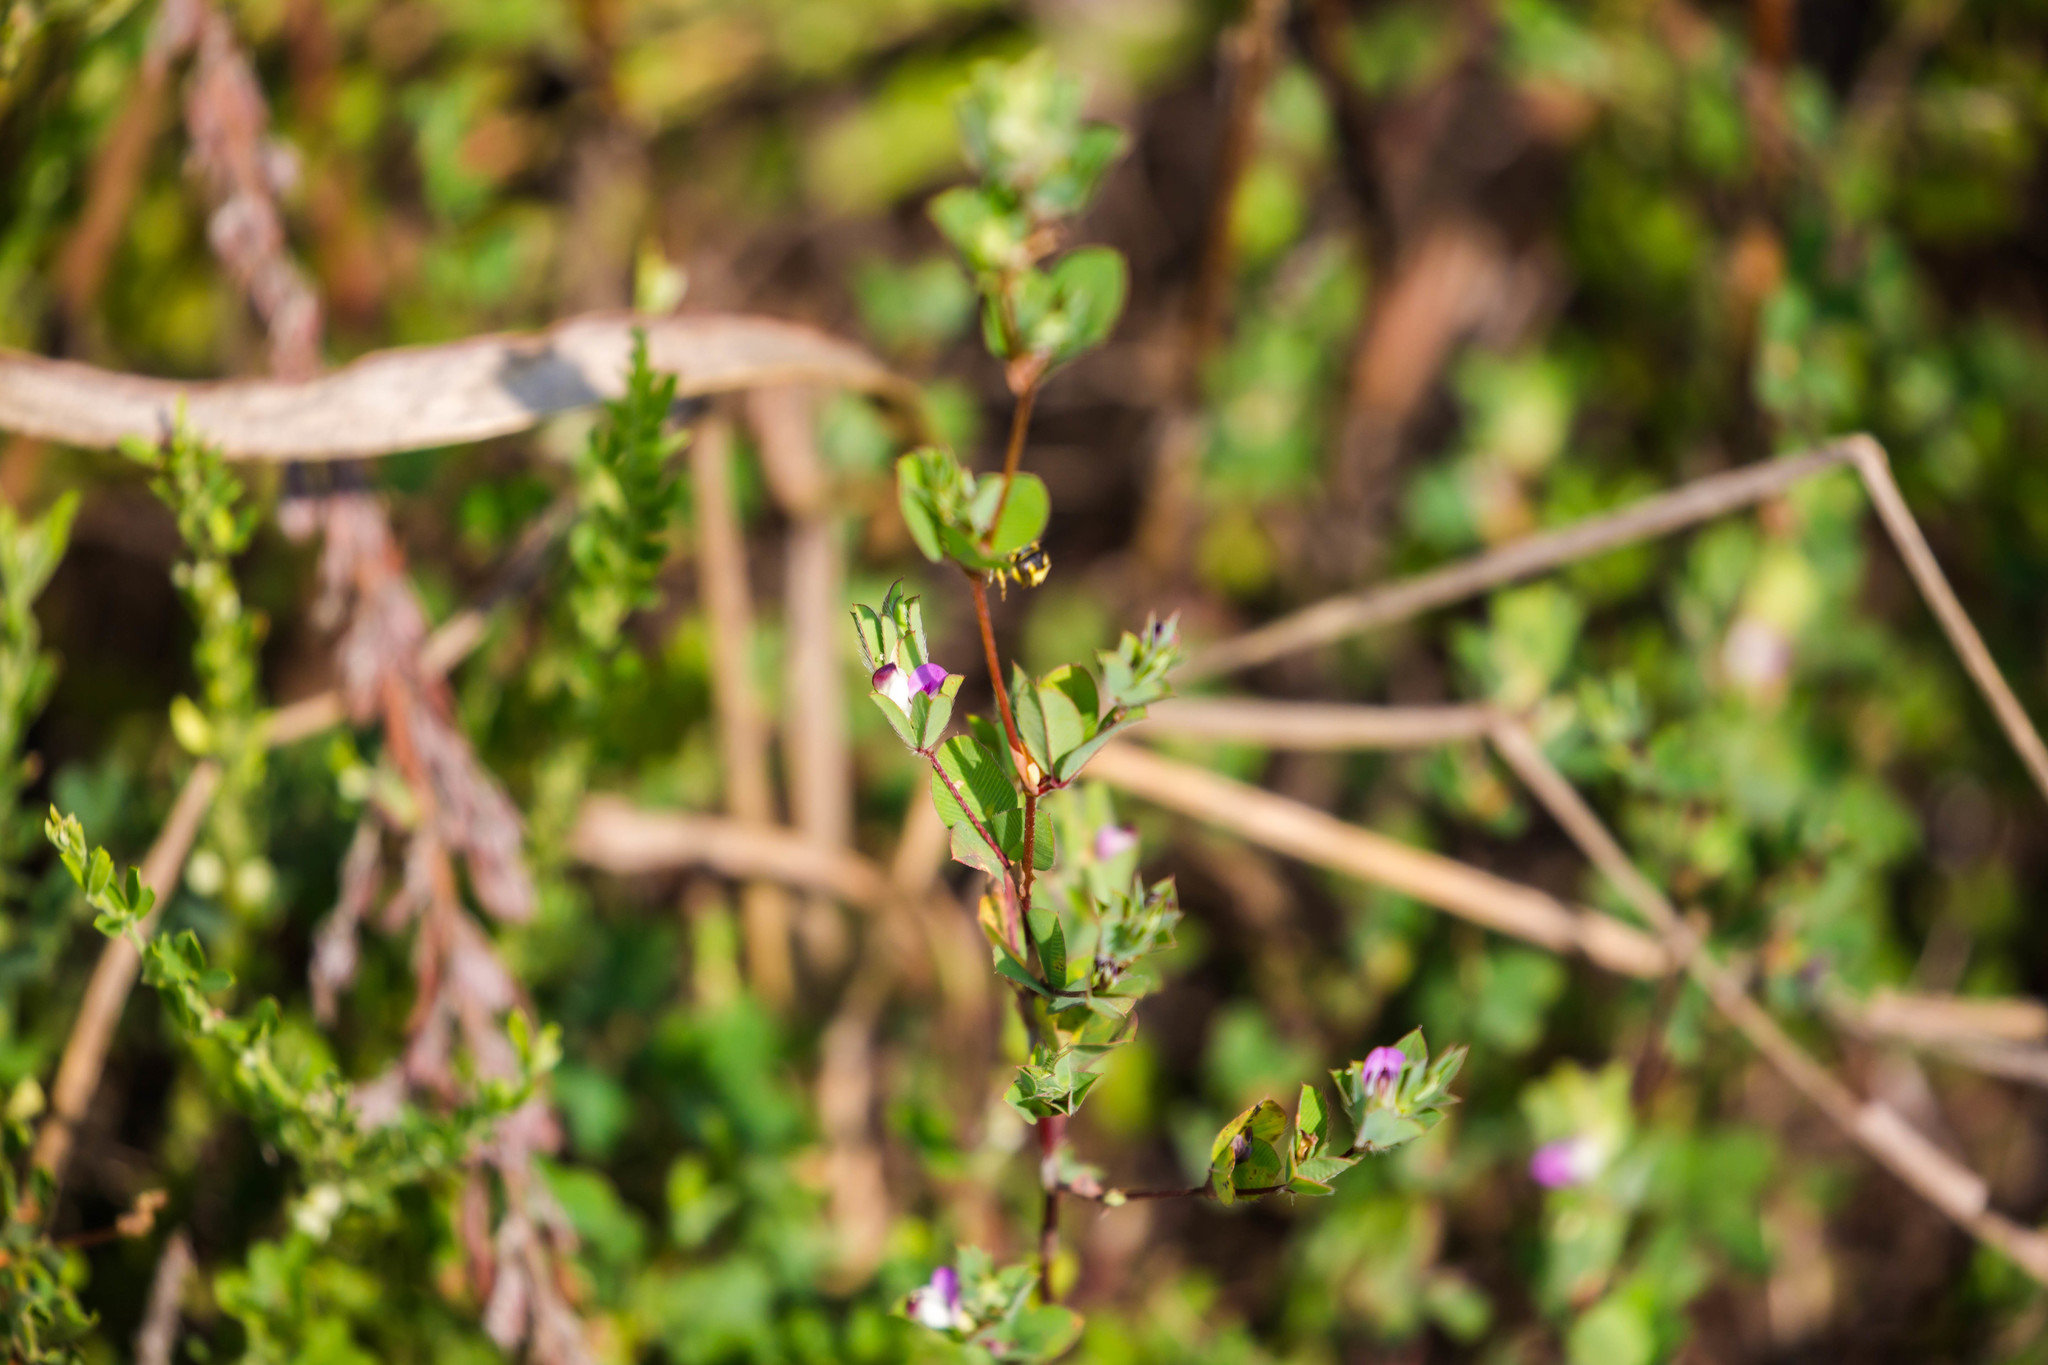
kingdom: Plantae
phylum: Tracheophyta
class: Magnoliopsida
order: Fabales
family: Fabaceae
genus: Kummerowia
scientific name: Kummerowia stipulacea
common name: Korean clover
